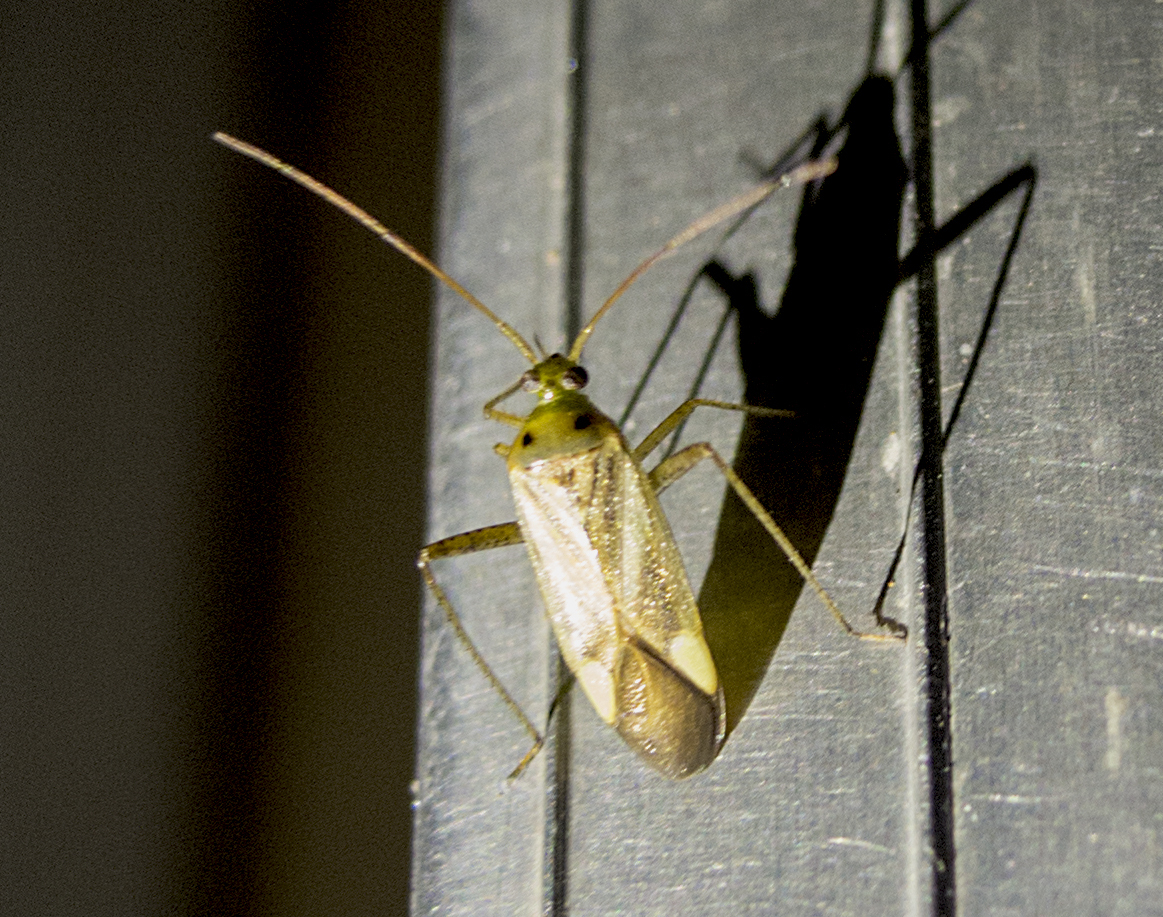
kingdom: Animalia
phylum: Arthropoda
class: Insecta
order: Hemiptera
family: Miridae
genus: Adelphocoris
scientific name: Adelphocoris lineolatus
